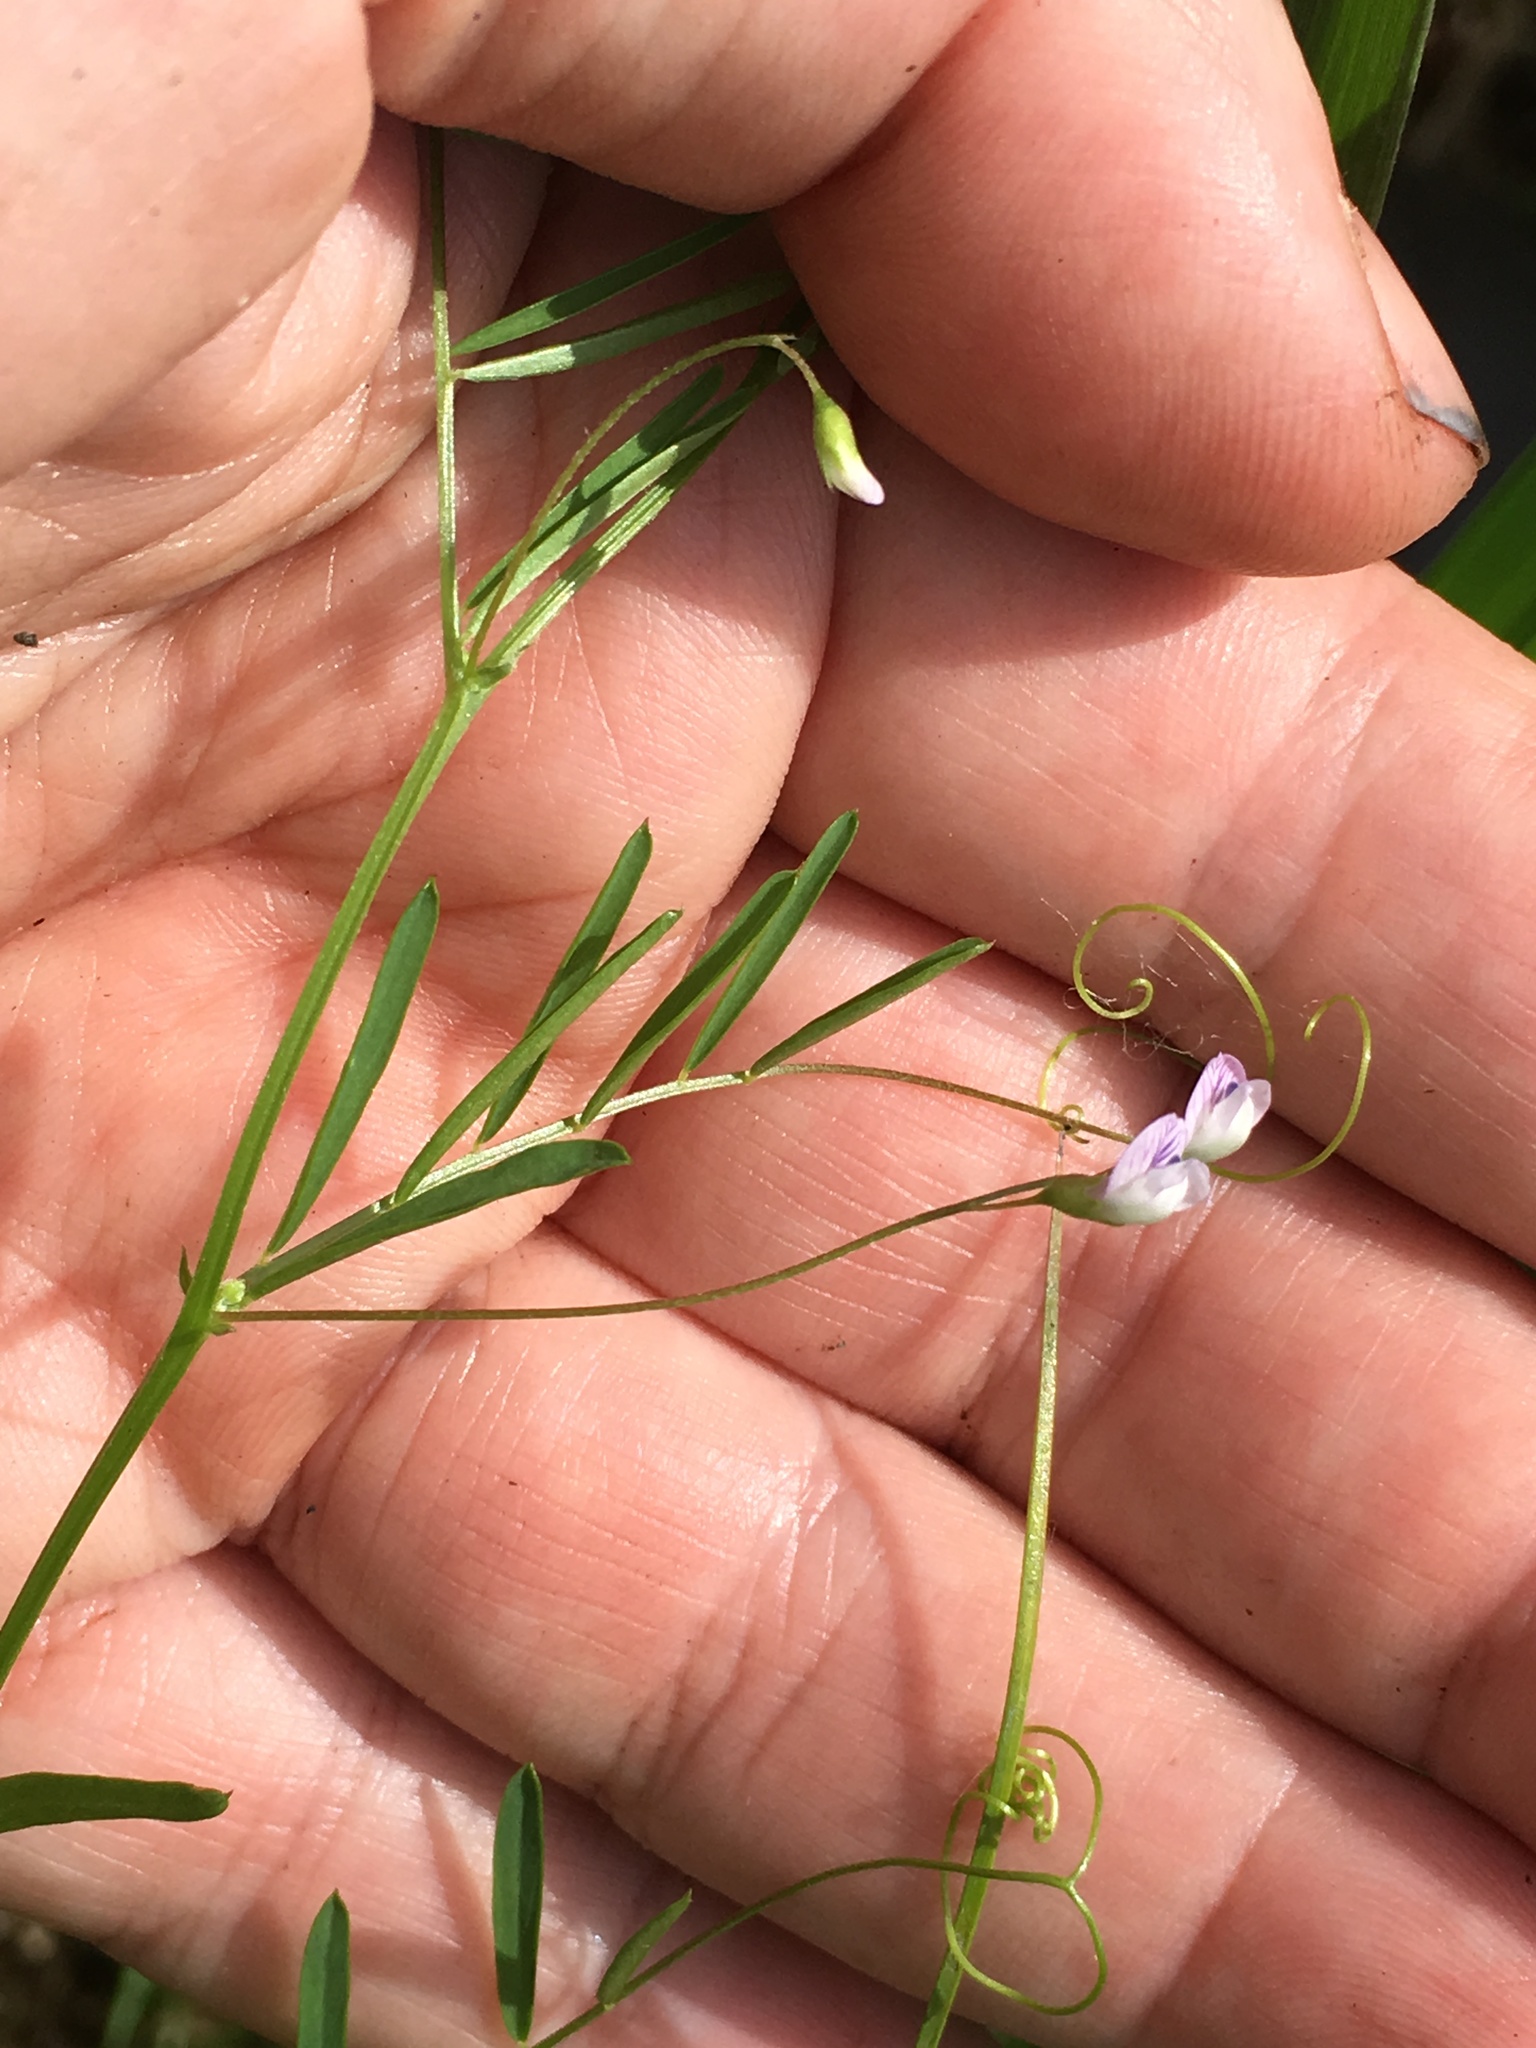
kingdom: Plantae
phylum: Tracheophyta
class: Magnoliopsida
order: Fabales
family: Fabaceae
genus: Vicia
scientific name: Vicia tetrasperma
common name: Smooth tare
